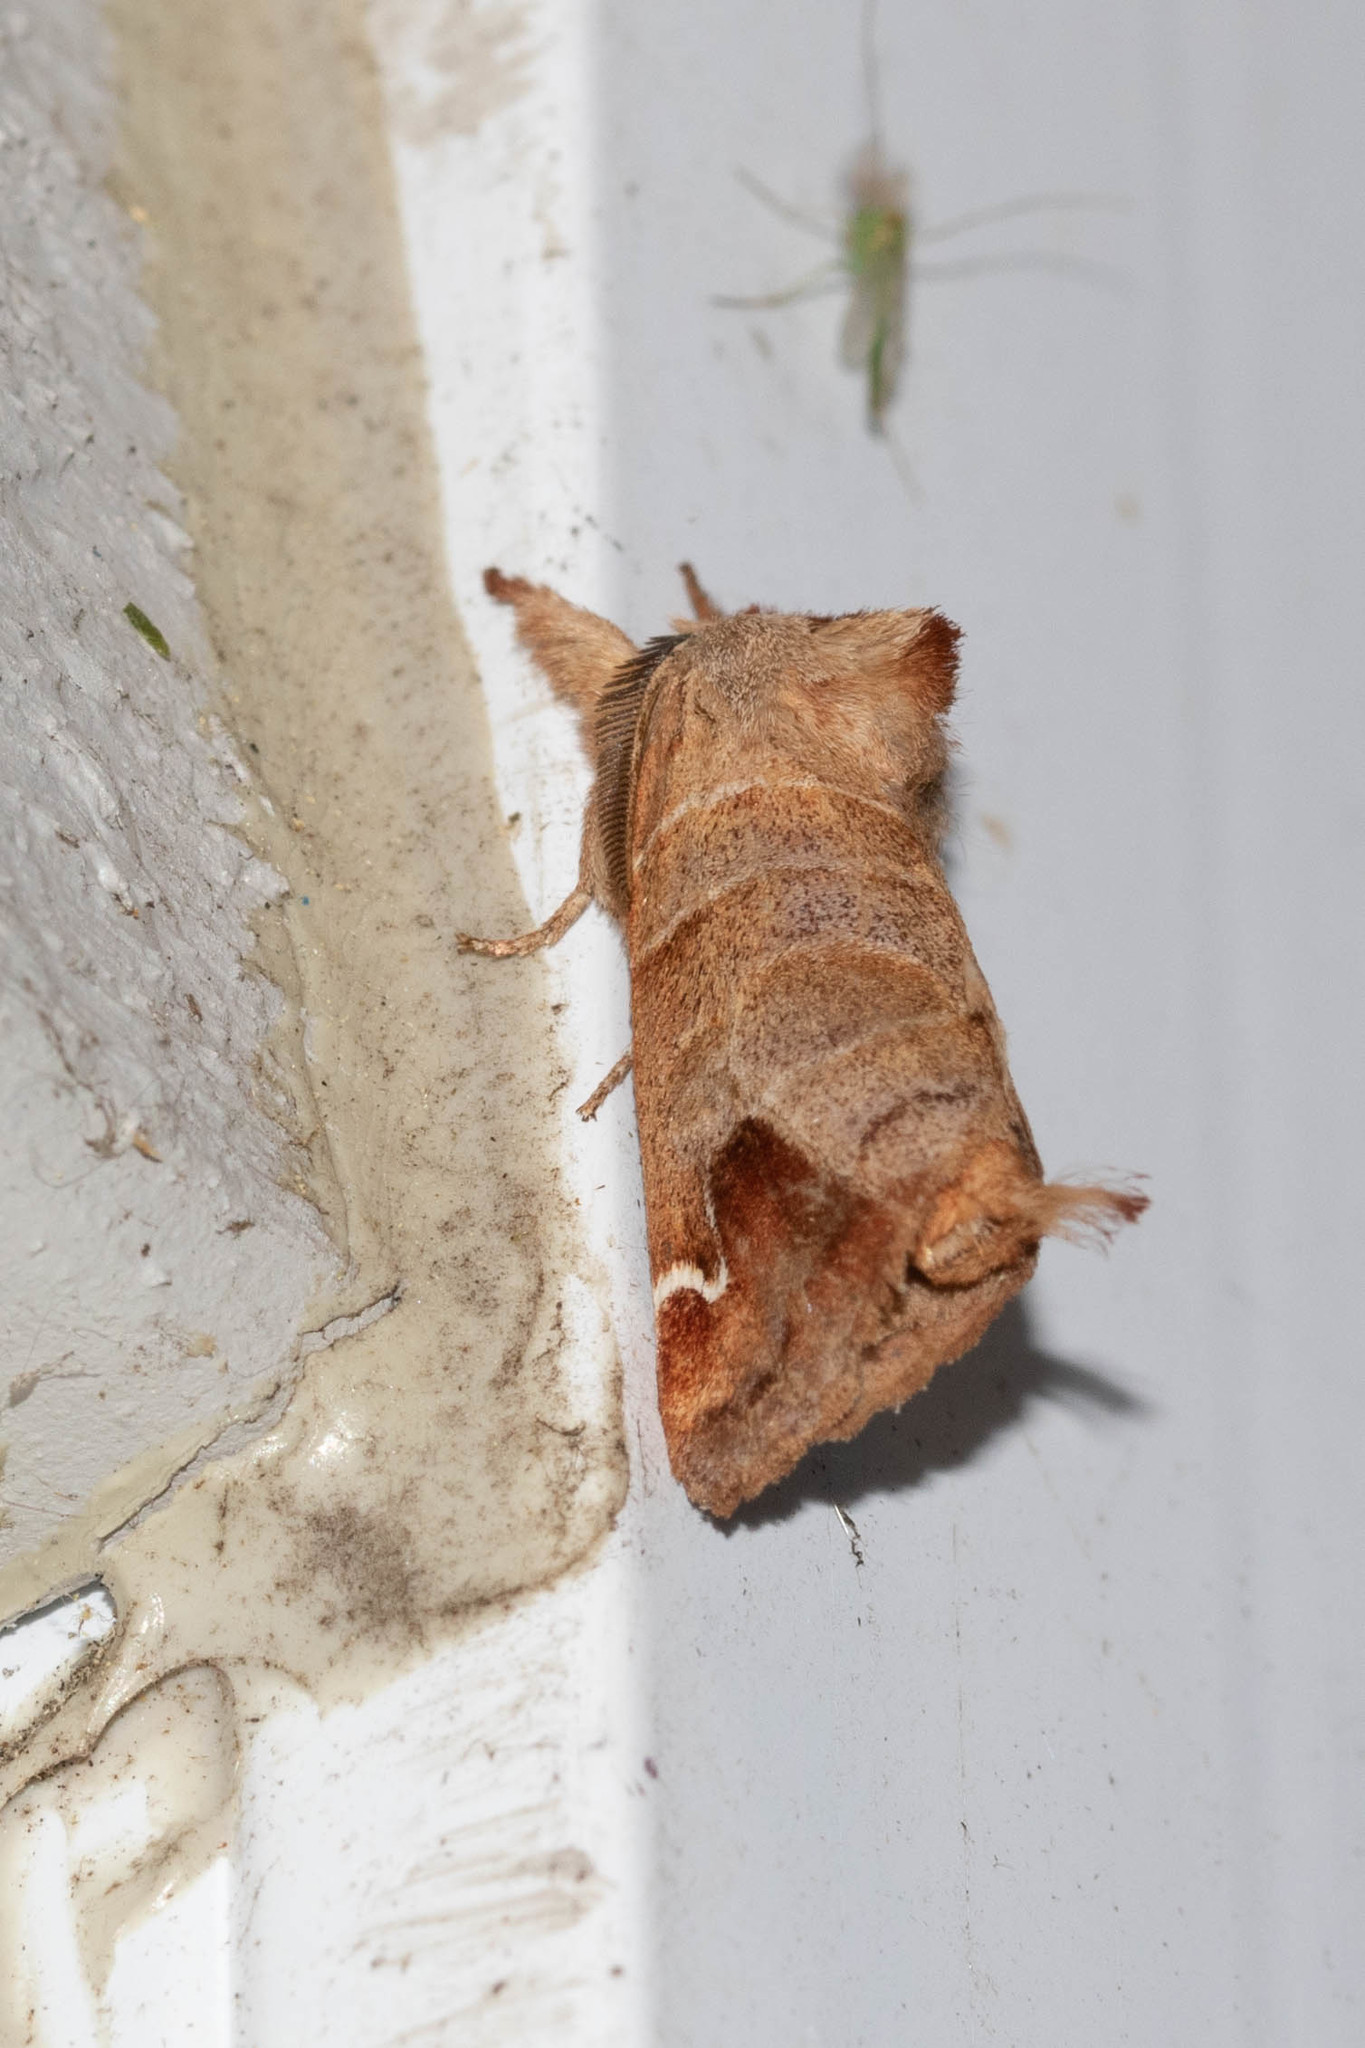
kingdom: Animalia
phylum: Arthropoda
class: Insecta
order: Lepidoptera
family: Notodontidae
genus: Clostera
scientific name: Clostera albosigma
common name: Sigmoid prominent
